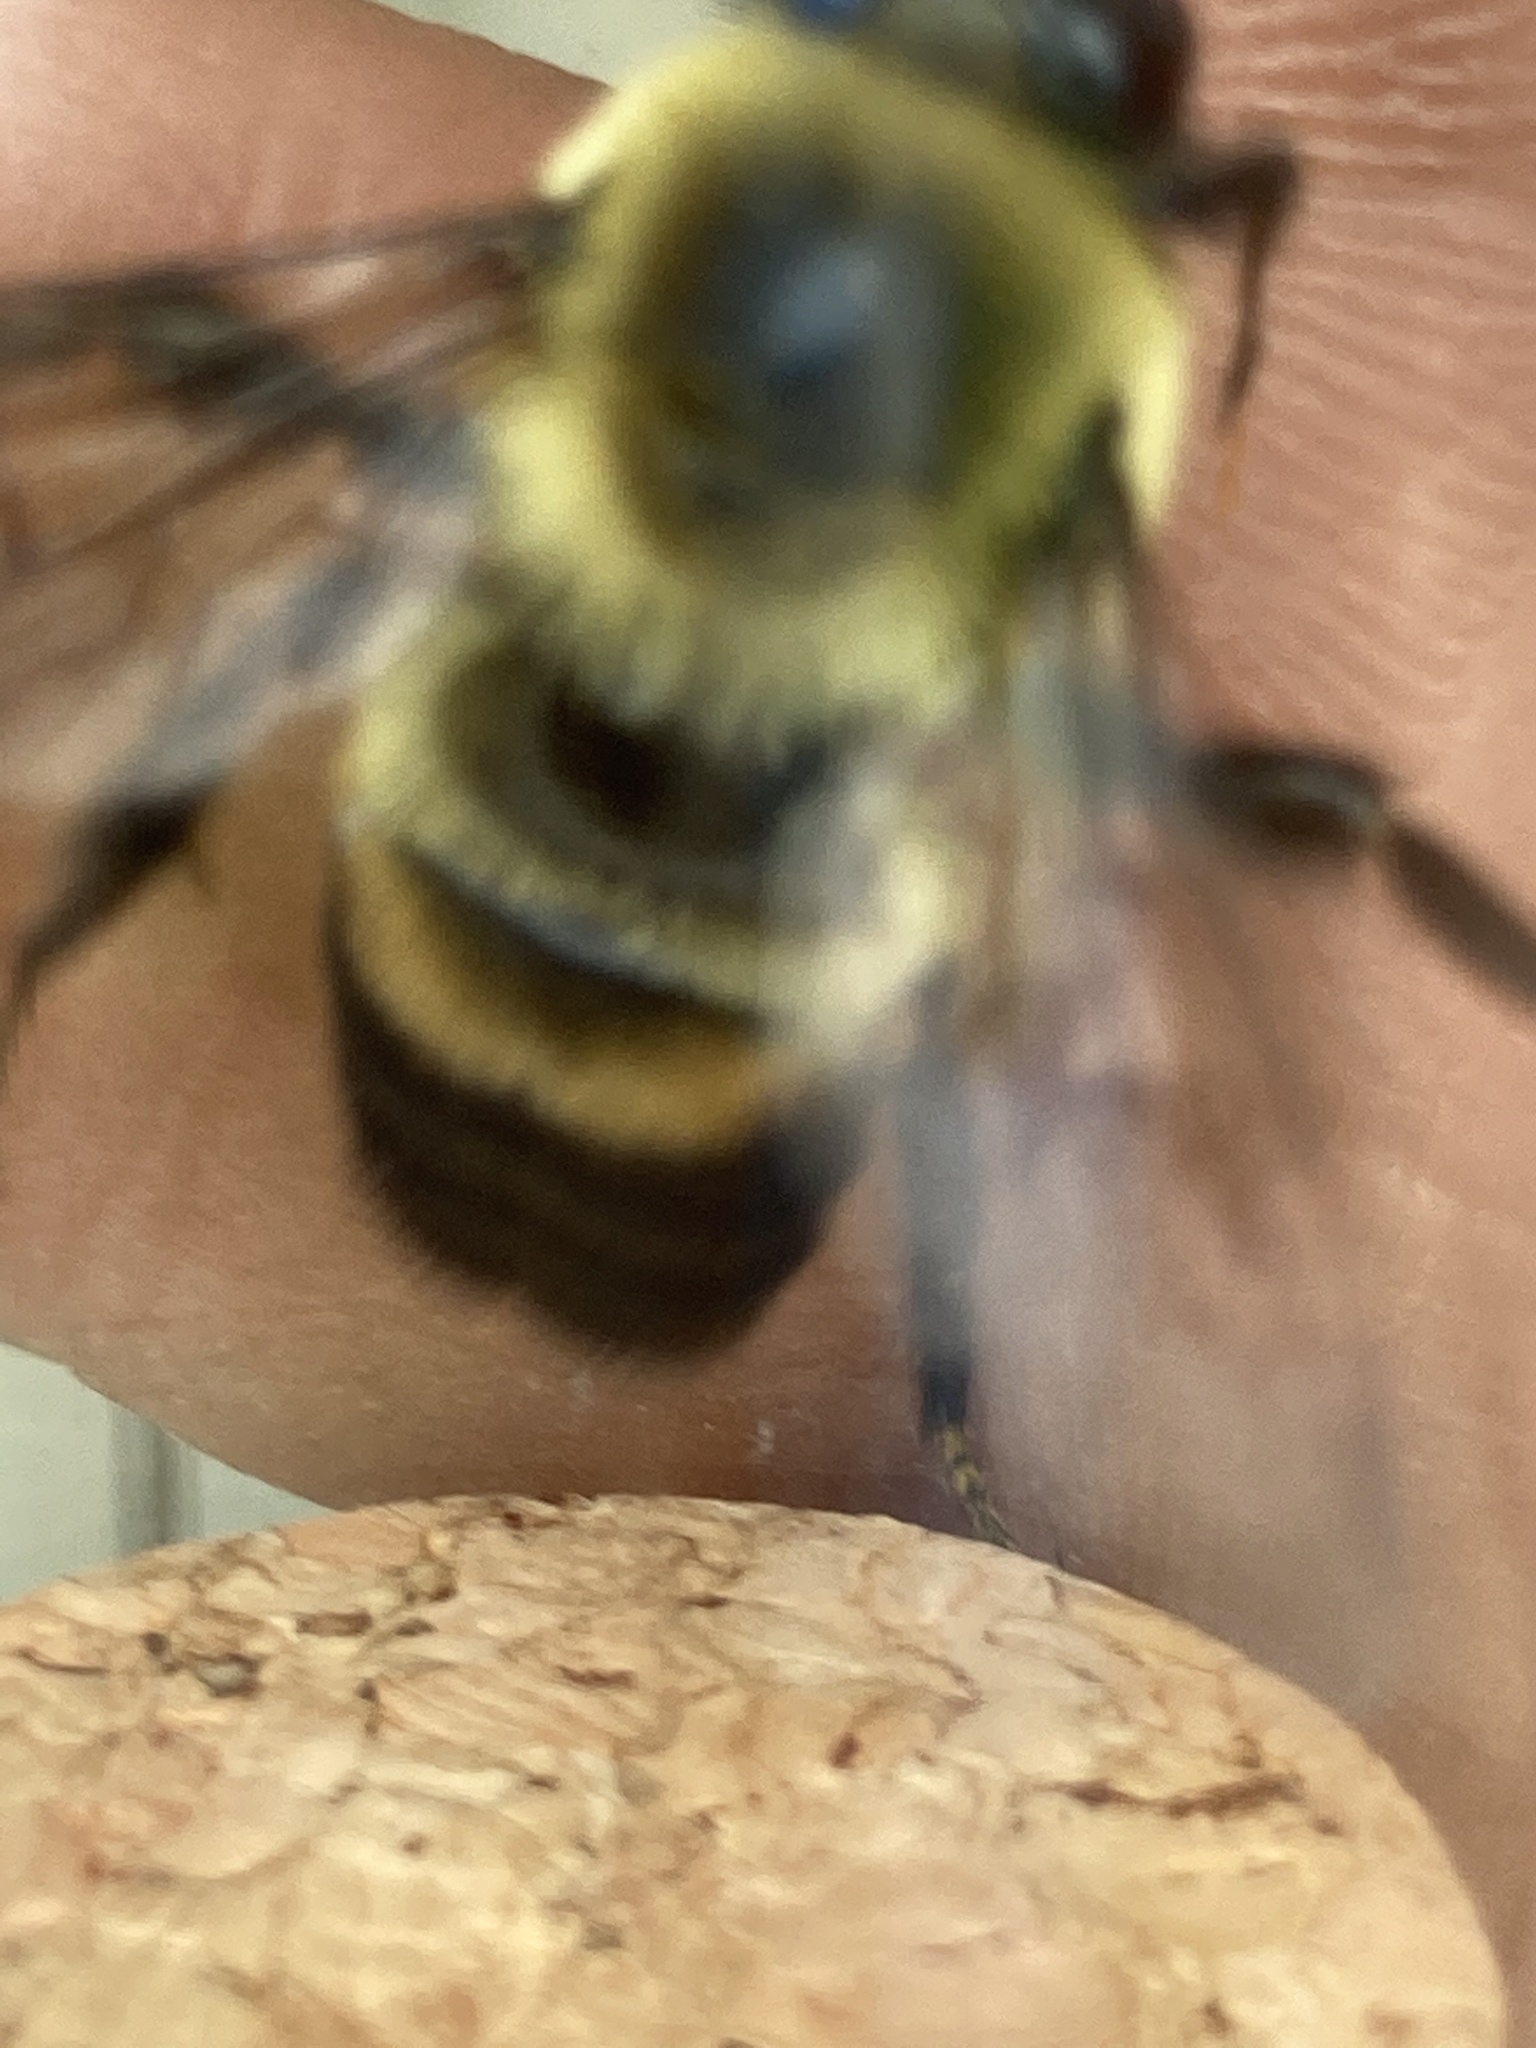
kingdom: Animalia
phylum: Arthropoda
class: Insecta
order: Hymenoptera
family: Apidae
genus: Bombus
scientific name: Bombus griseocollis
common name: Brown-belted bumble bee
